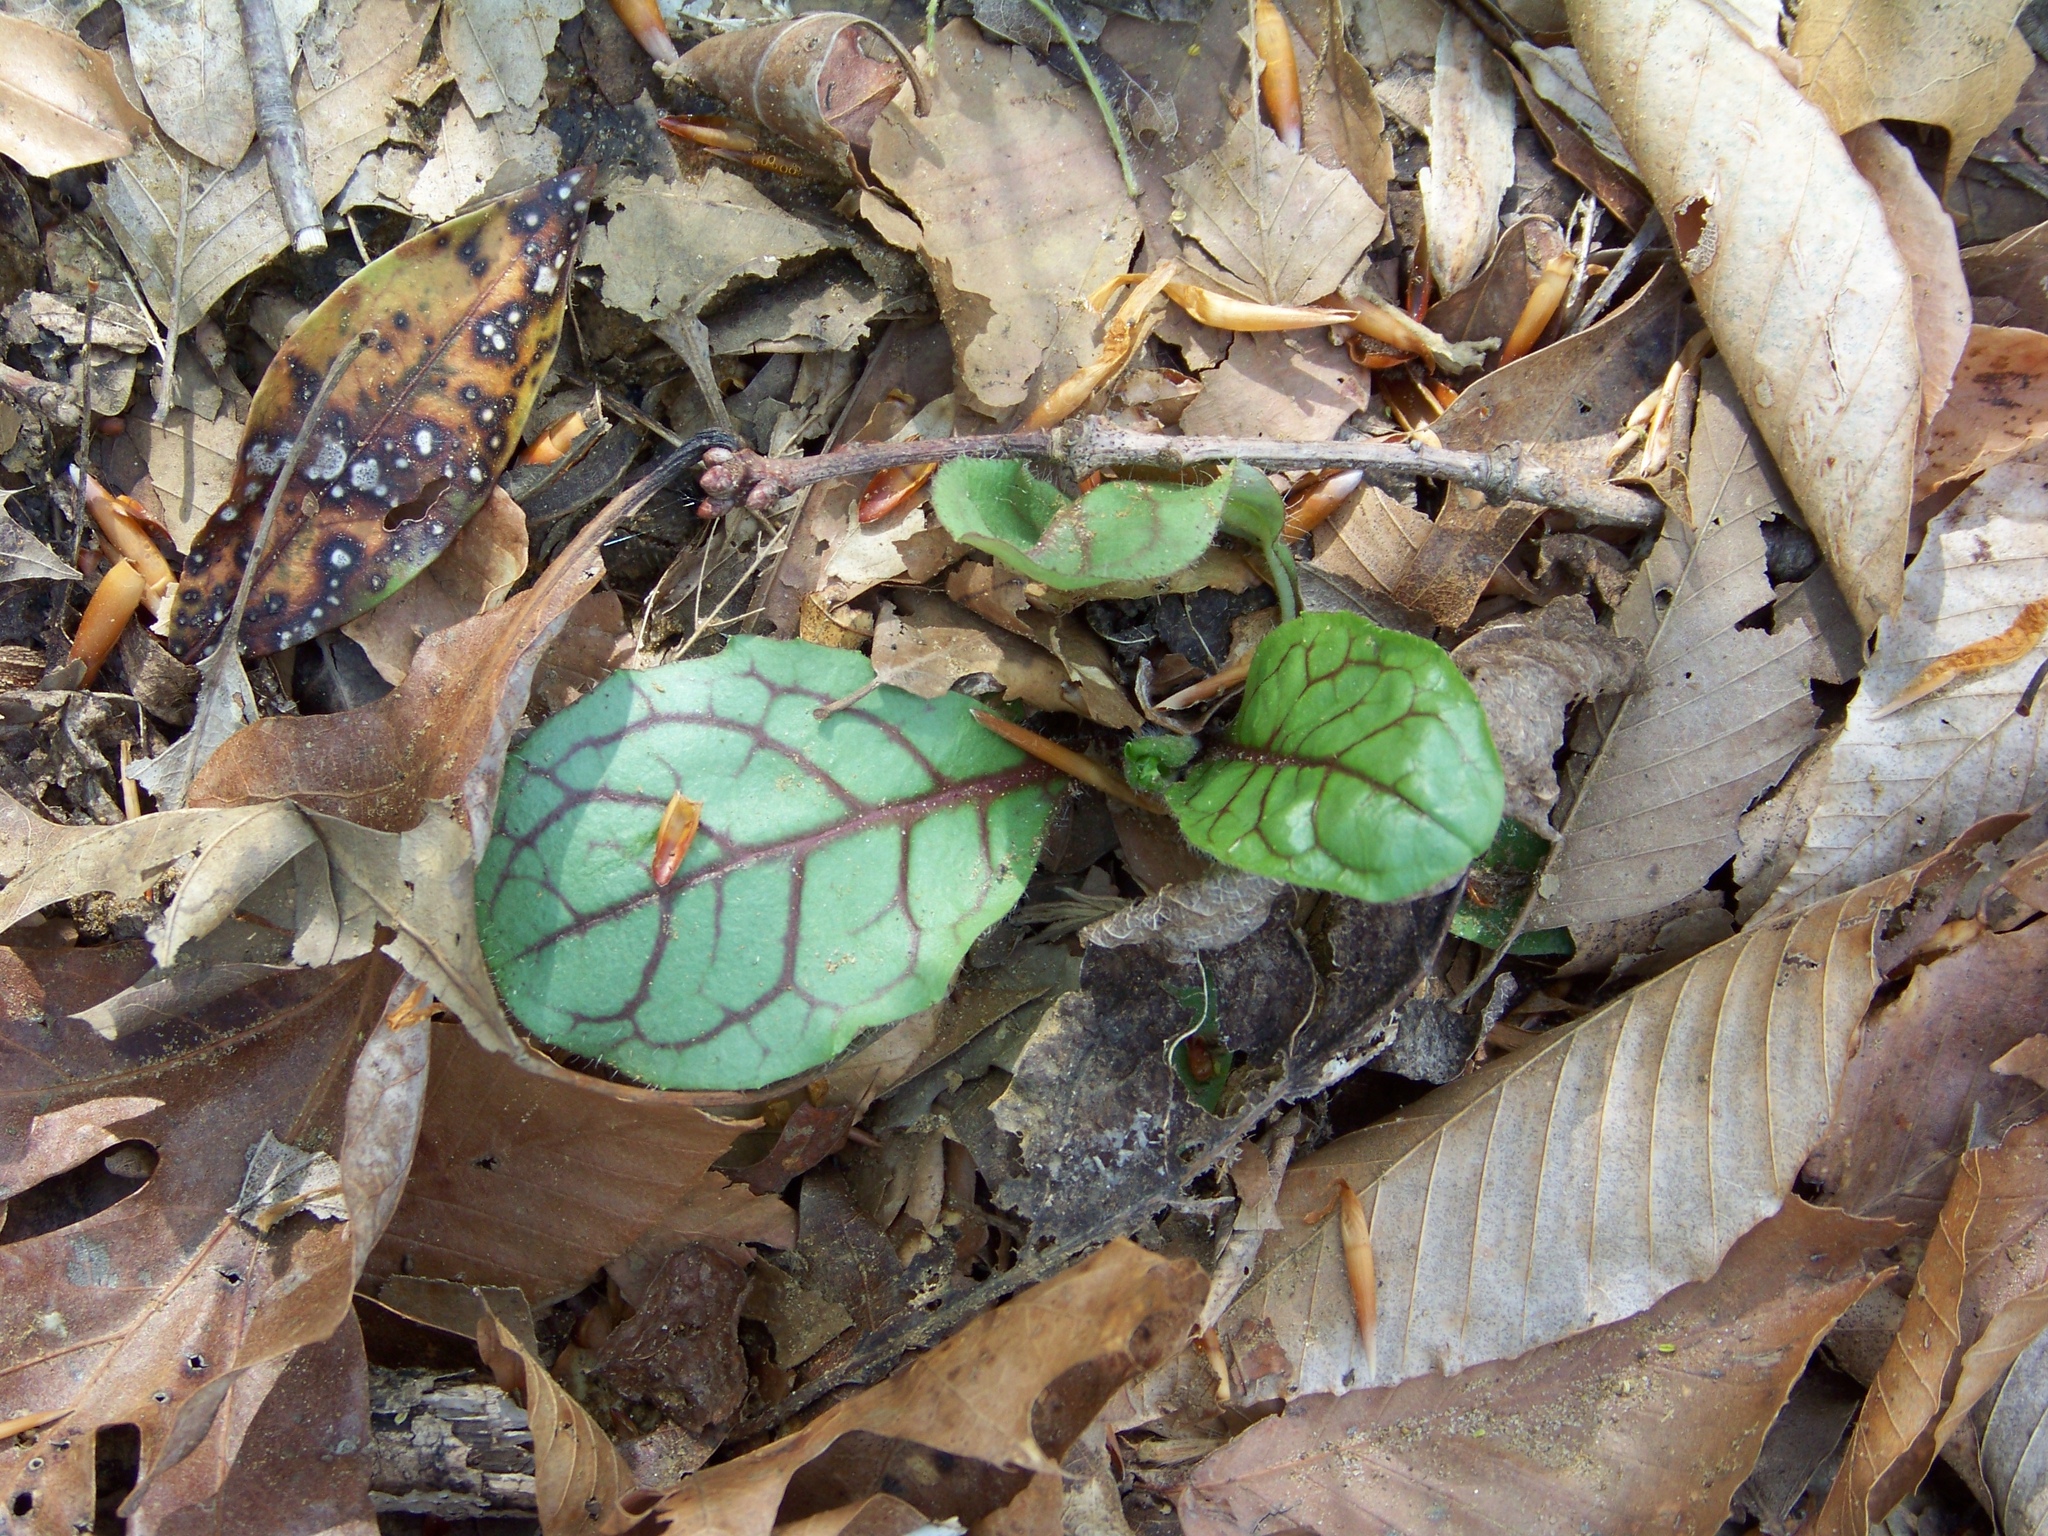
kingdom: Plantae
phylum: Tracheophyta
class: Magnoliopsida
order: Asterales
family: Asteraceae
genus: Hieracium
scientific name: Hieracium venosum
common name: Rattlesnake hawkweed
